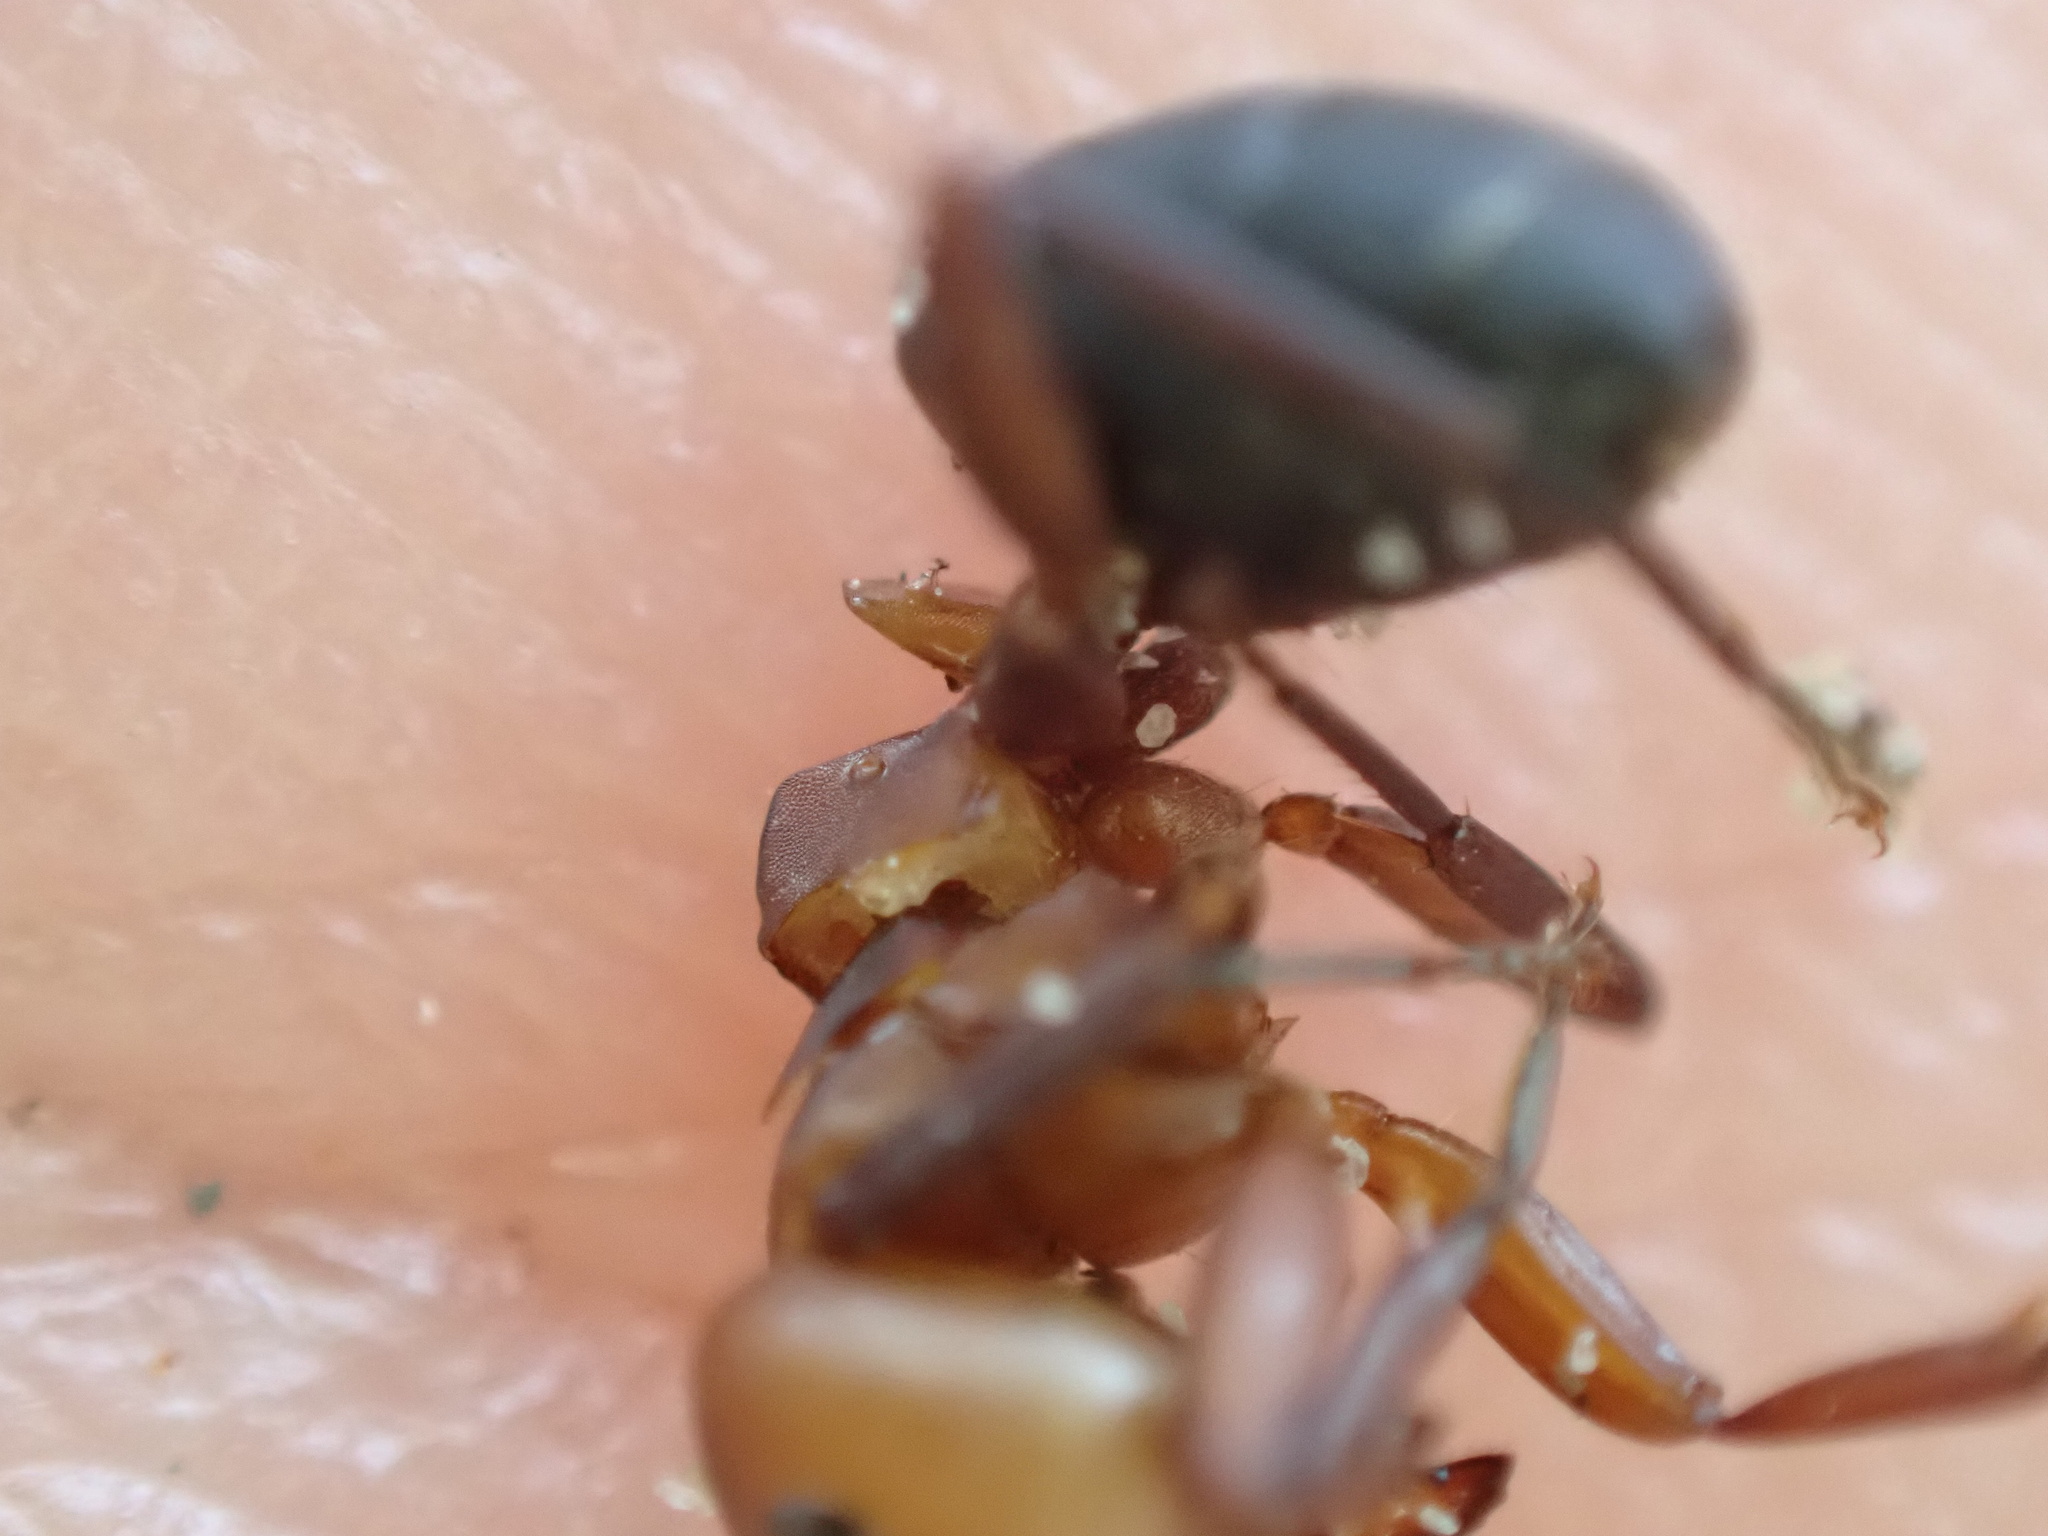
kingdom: Animalia
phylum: Arthropoda
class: Insecta
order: Hymenoptera
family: Formicidae
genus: Camponotus
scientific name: Camponotus rectangularis
